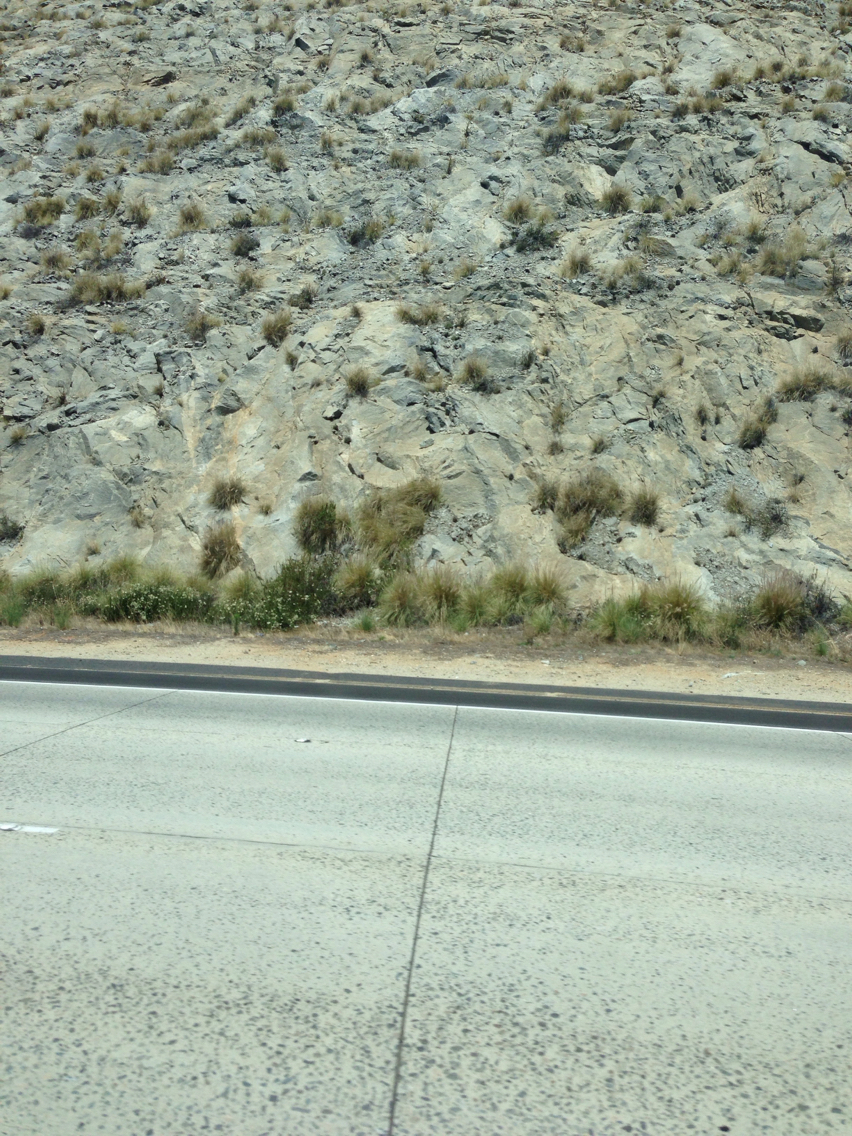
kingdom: Plantae
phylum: Tracheophyta
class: Liliopsida
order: Poales
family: Poaceae
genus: Cenchrus
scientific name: Cenchrus setaceus
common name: Crimson fountaingrass
